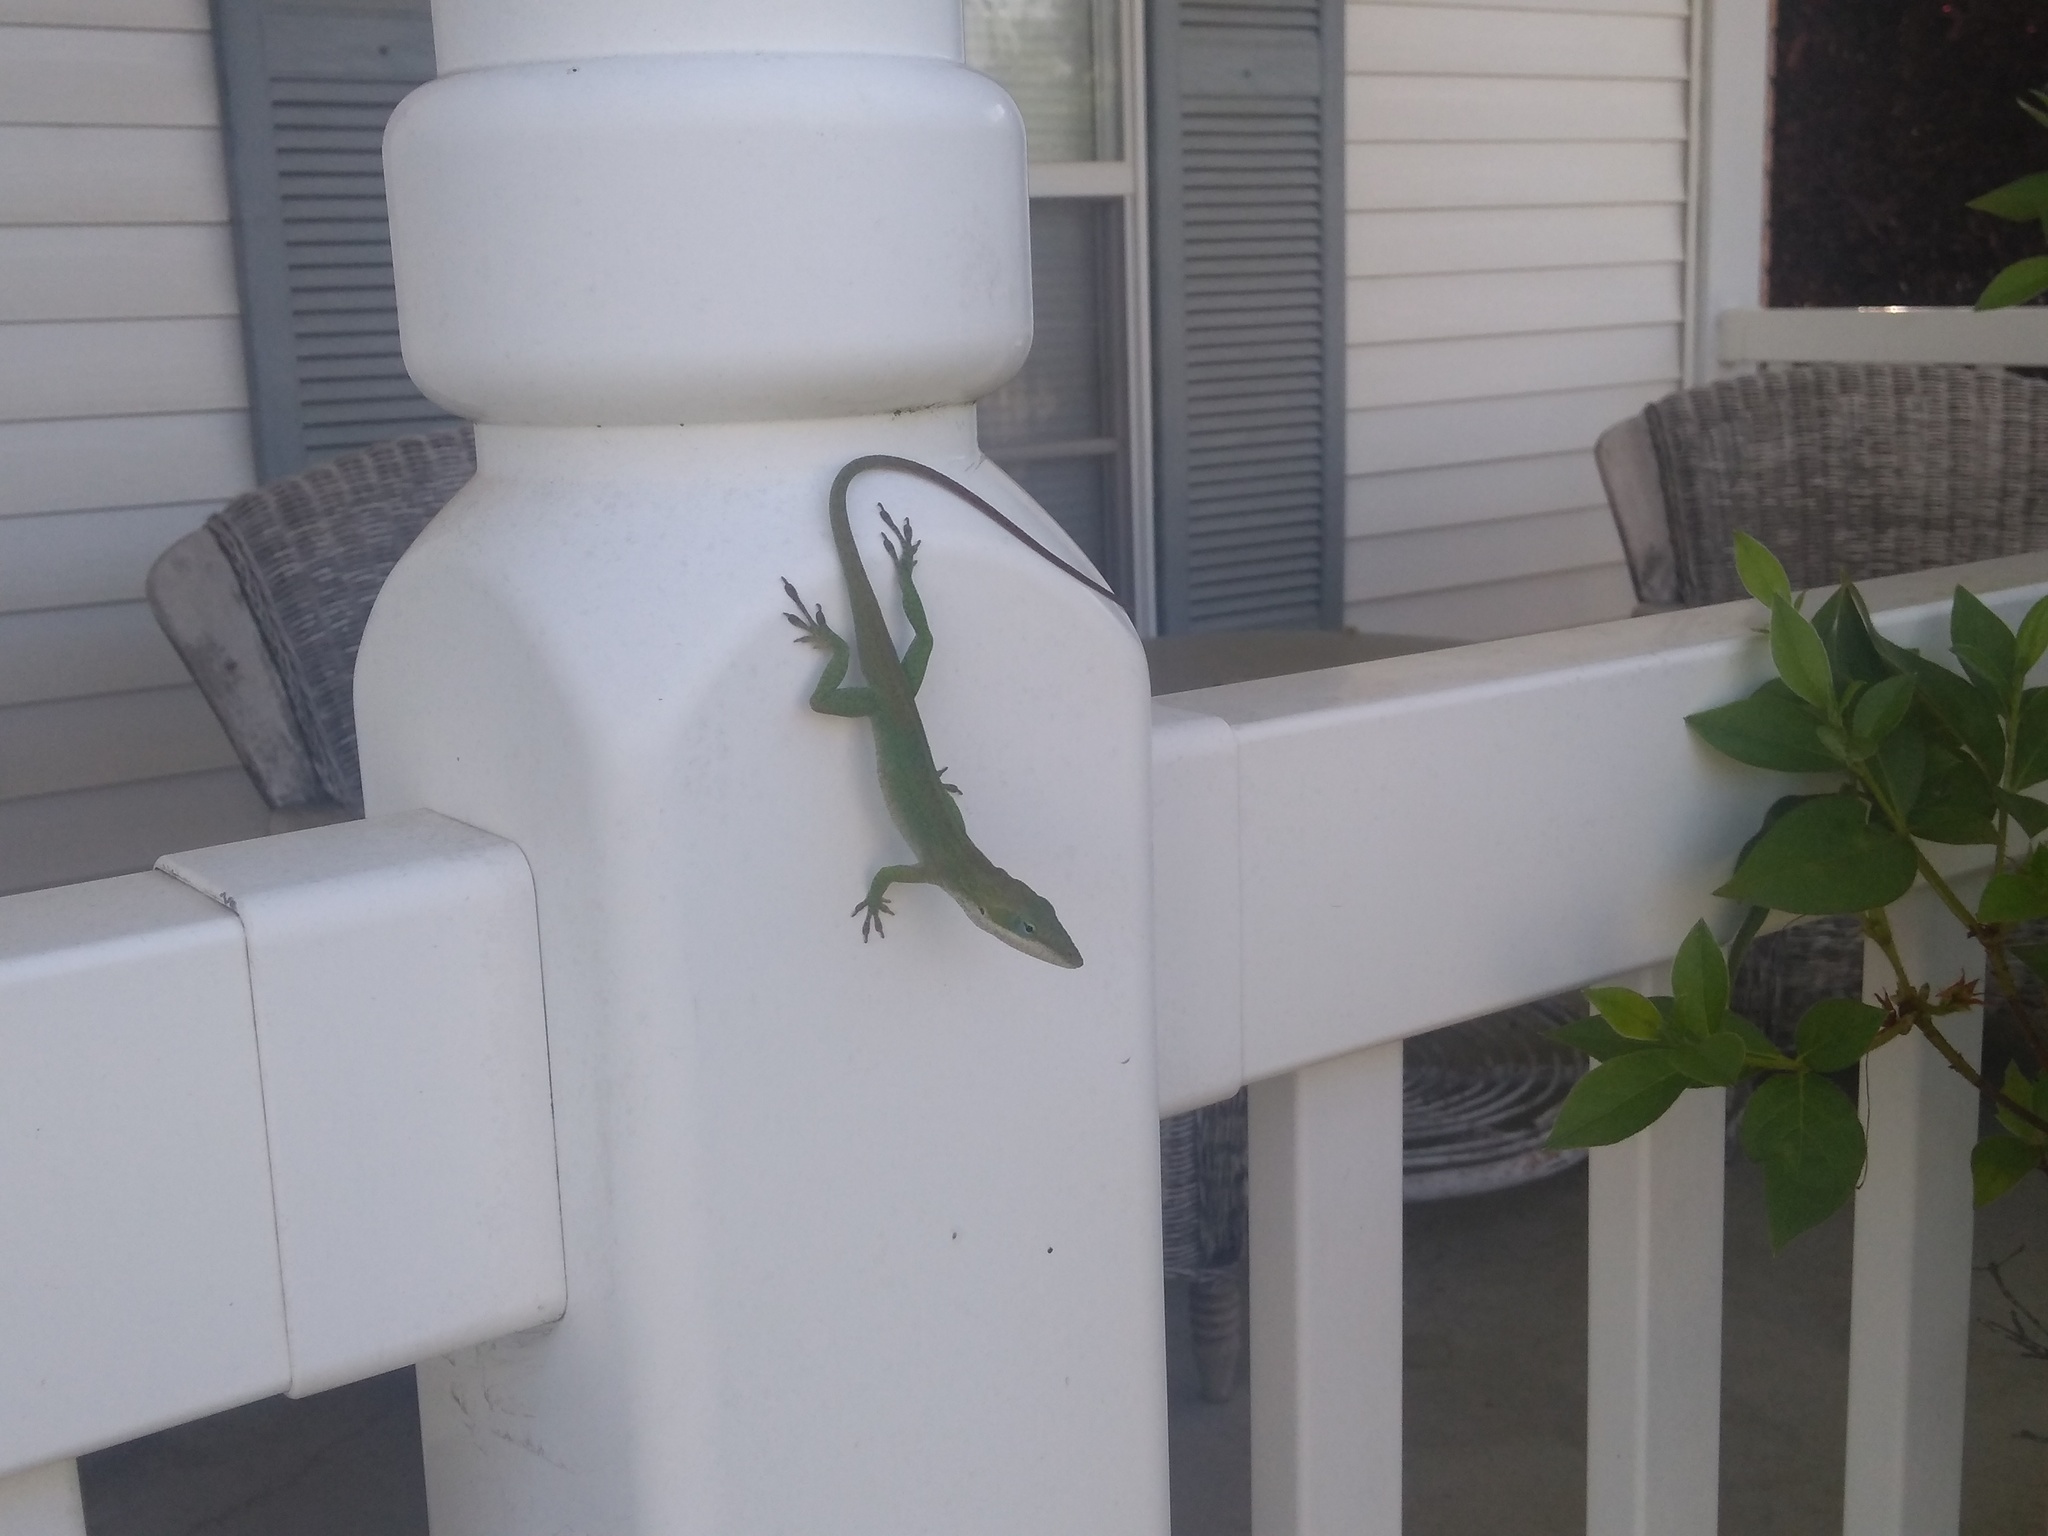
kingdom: Animalia
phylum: Chordata
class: Squamata
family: Dactyloidae
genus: Anolis
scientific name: Anolis carolinensis
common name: Green anole
